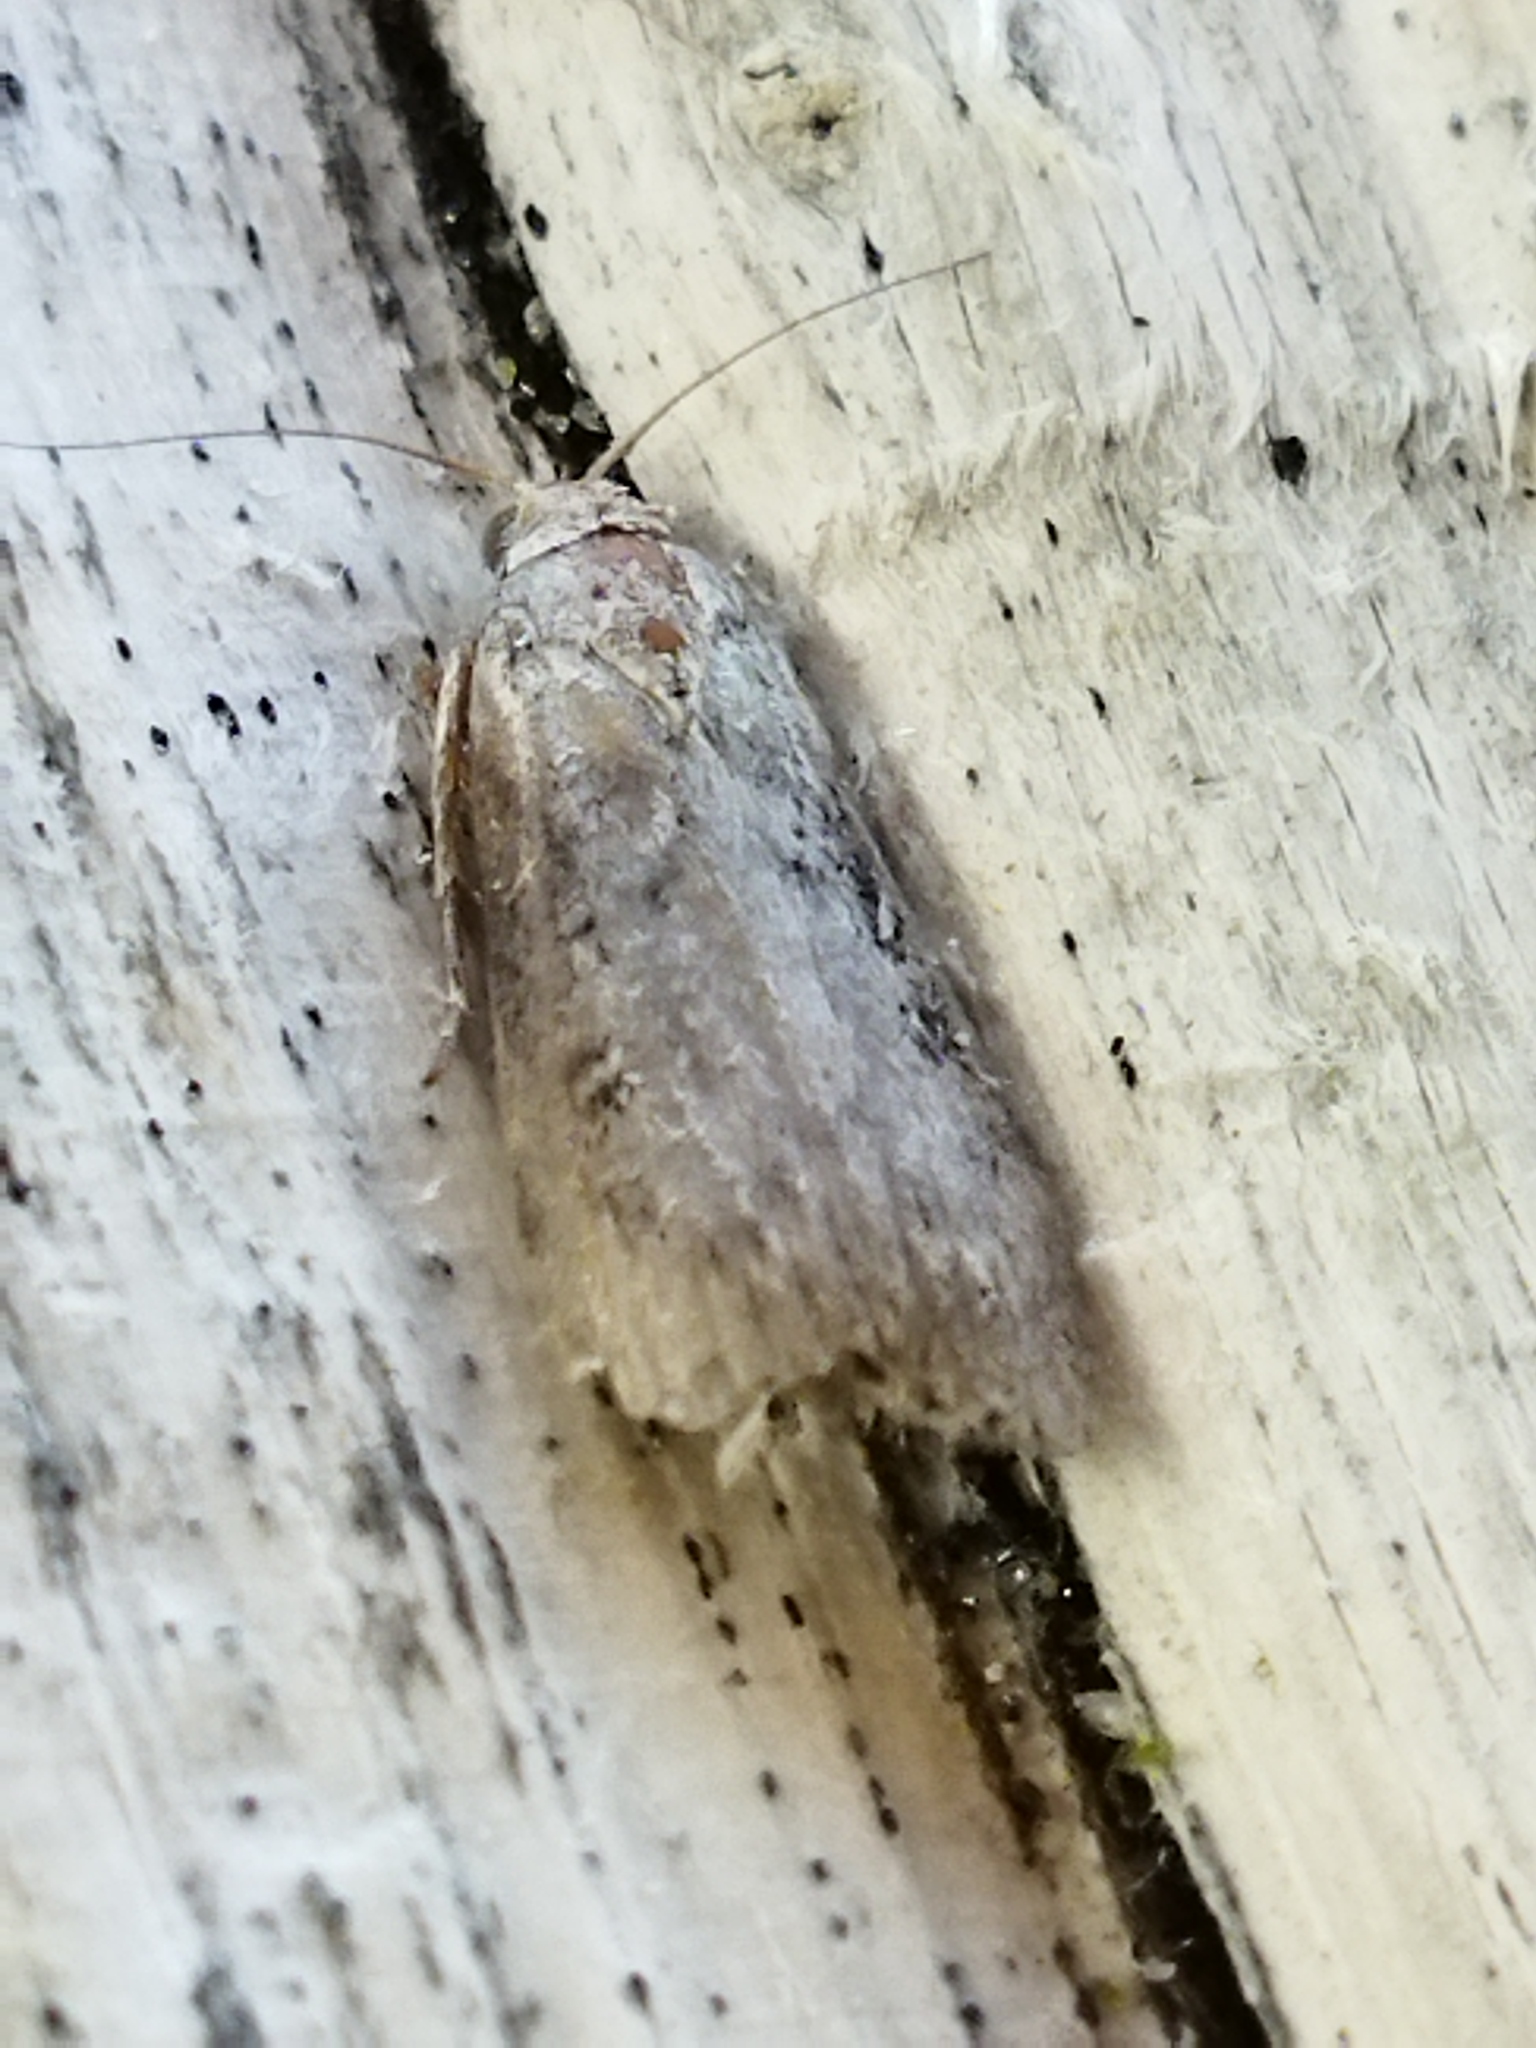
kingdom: Animalia
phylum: Arthropoda
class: Insecta
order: Lepidoptera
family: Pyralidae
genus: Lamoria
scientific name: Lamoria anella
